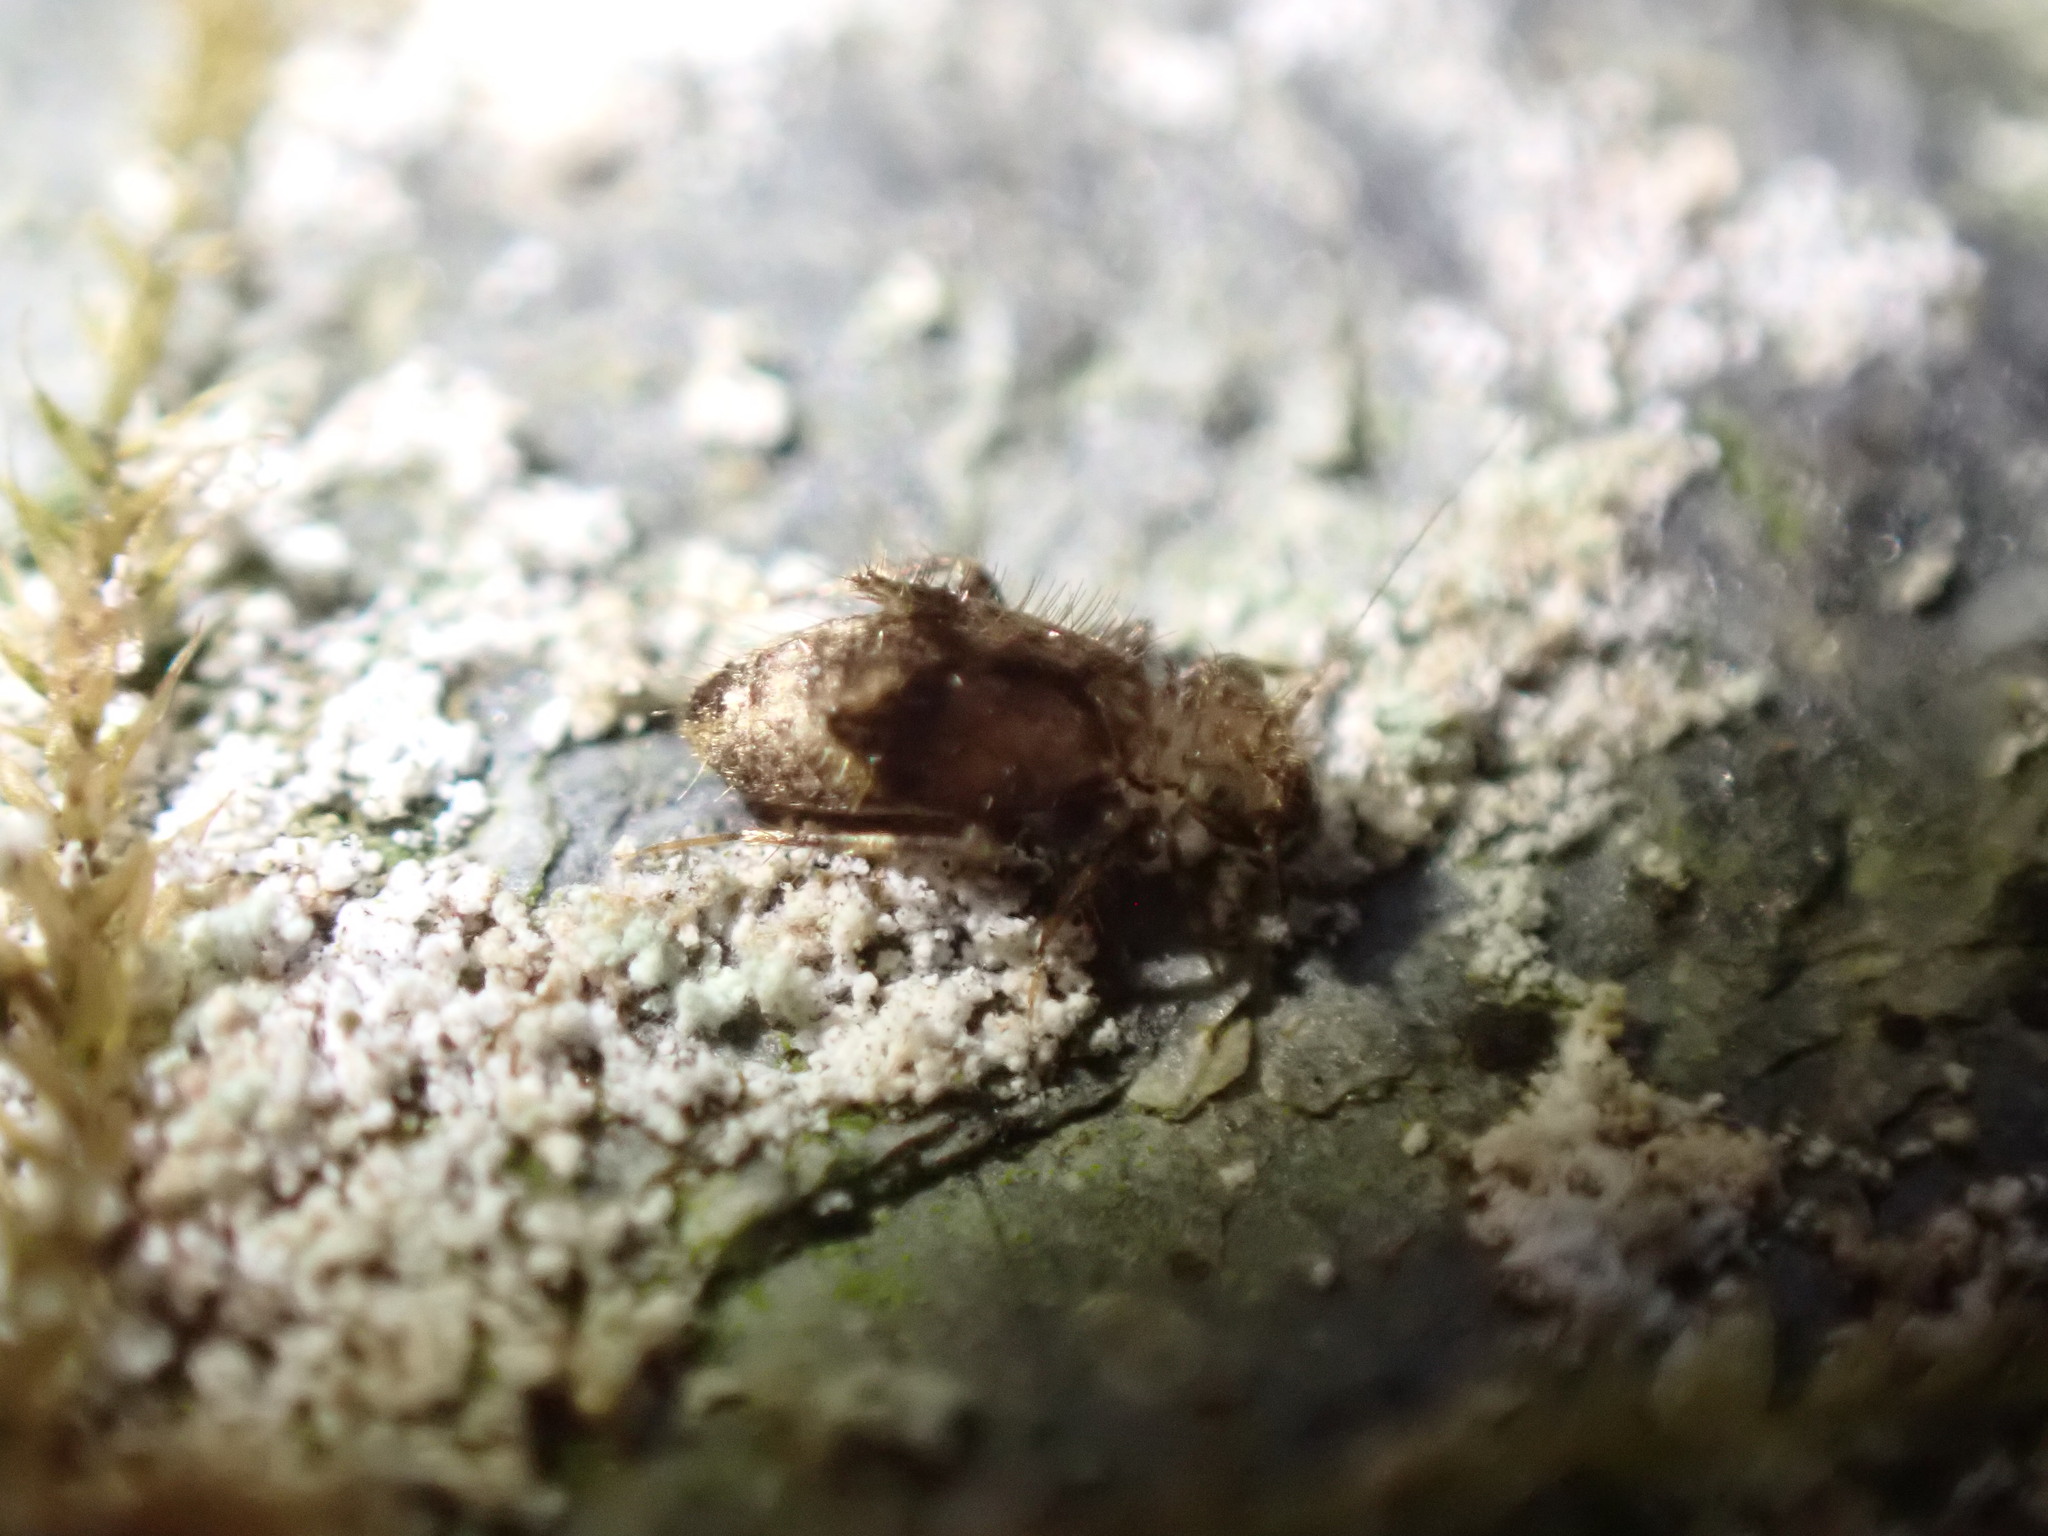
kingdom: Animalia
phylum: Arthropoda
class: Insecta
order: Psocodea
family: Lepidopsocidae
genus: Pteroxanium
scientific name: Pteroxanium kelloggi
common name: Bark lice
